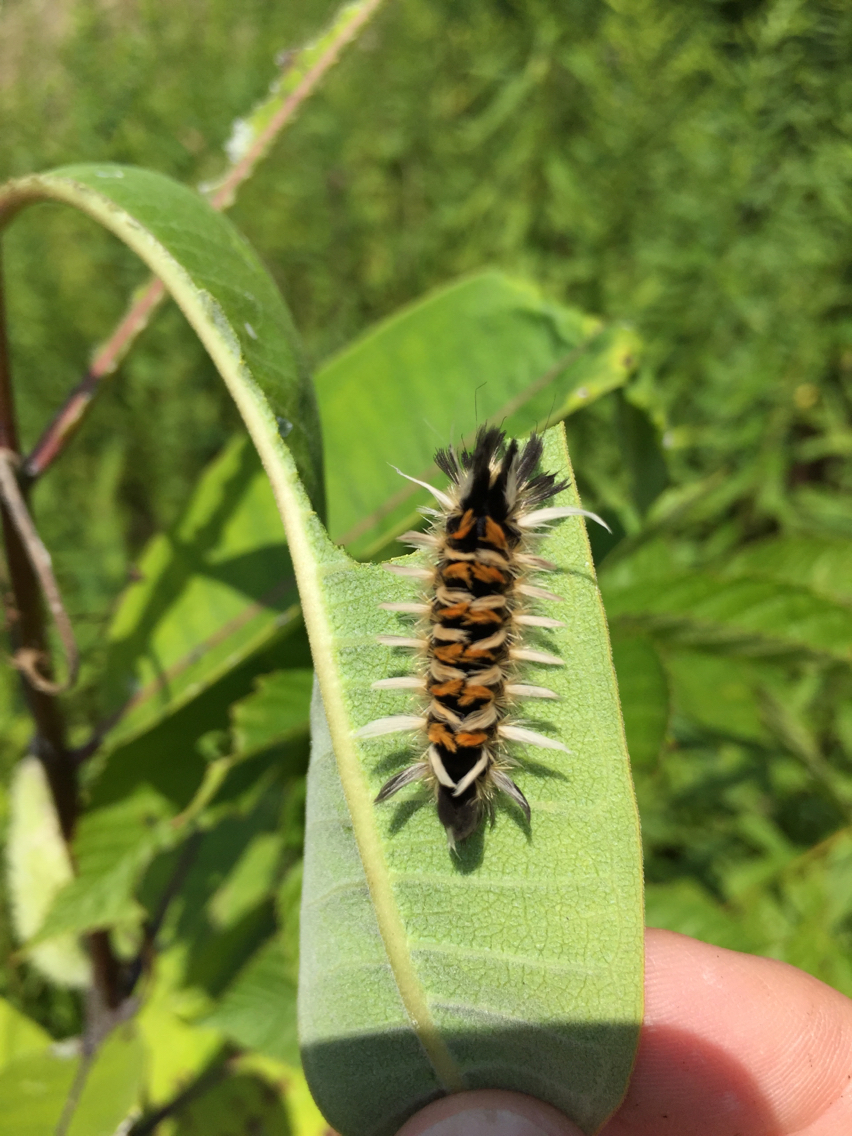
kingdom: Animalia
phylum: Arthropoda
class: Insecta
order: Lepidoptera
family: Erebidae
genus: Euchaetes
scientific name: Euchaetes egle
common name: Milkweed tussock moth
